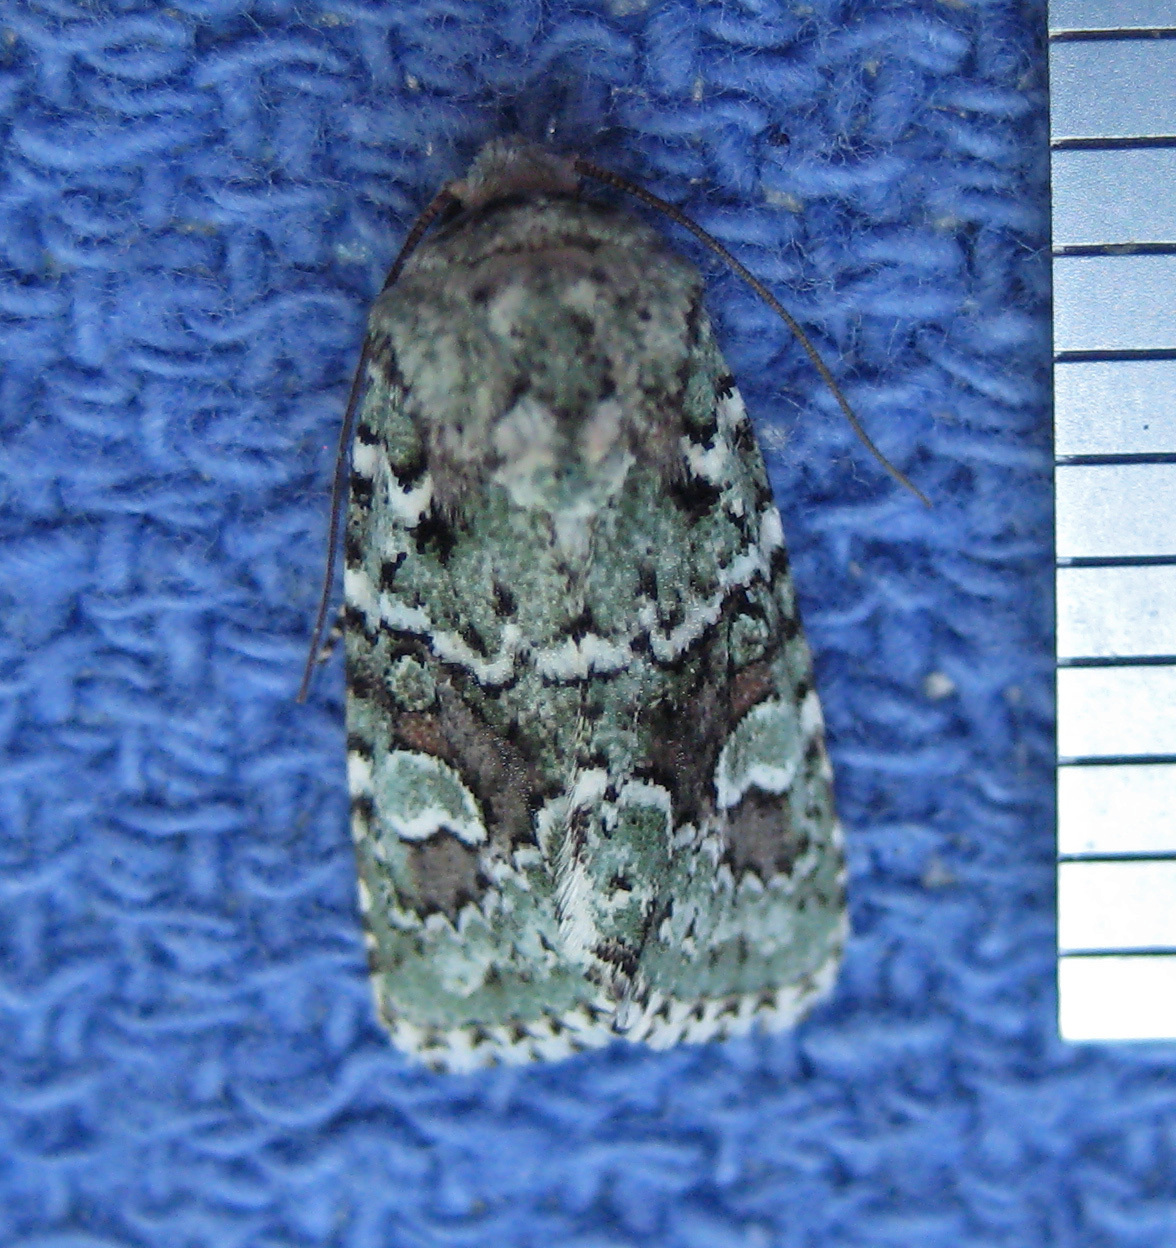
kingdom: Animalia
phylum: Arthropoda
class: Insecta
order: Lepidoptera
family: Noctuidae
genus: Lacinipolia
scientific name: Lacinipolia laudabilis
